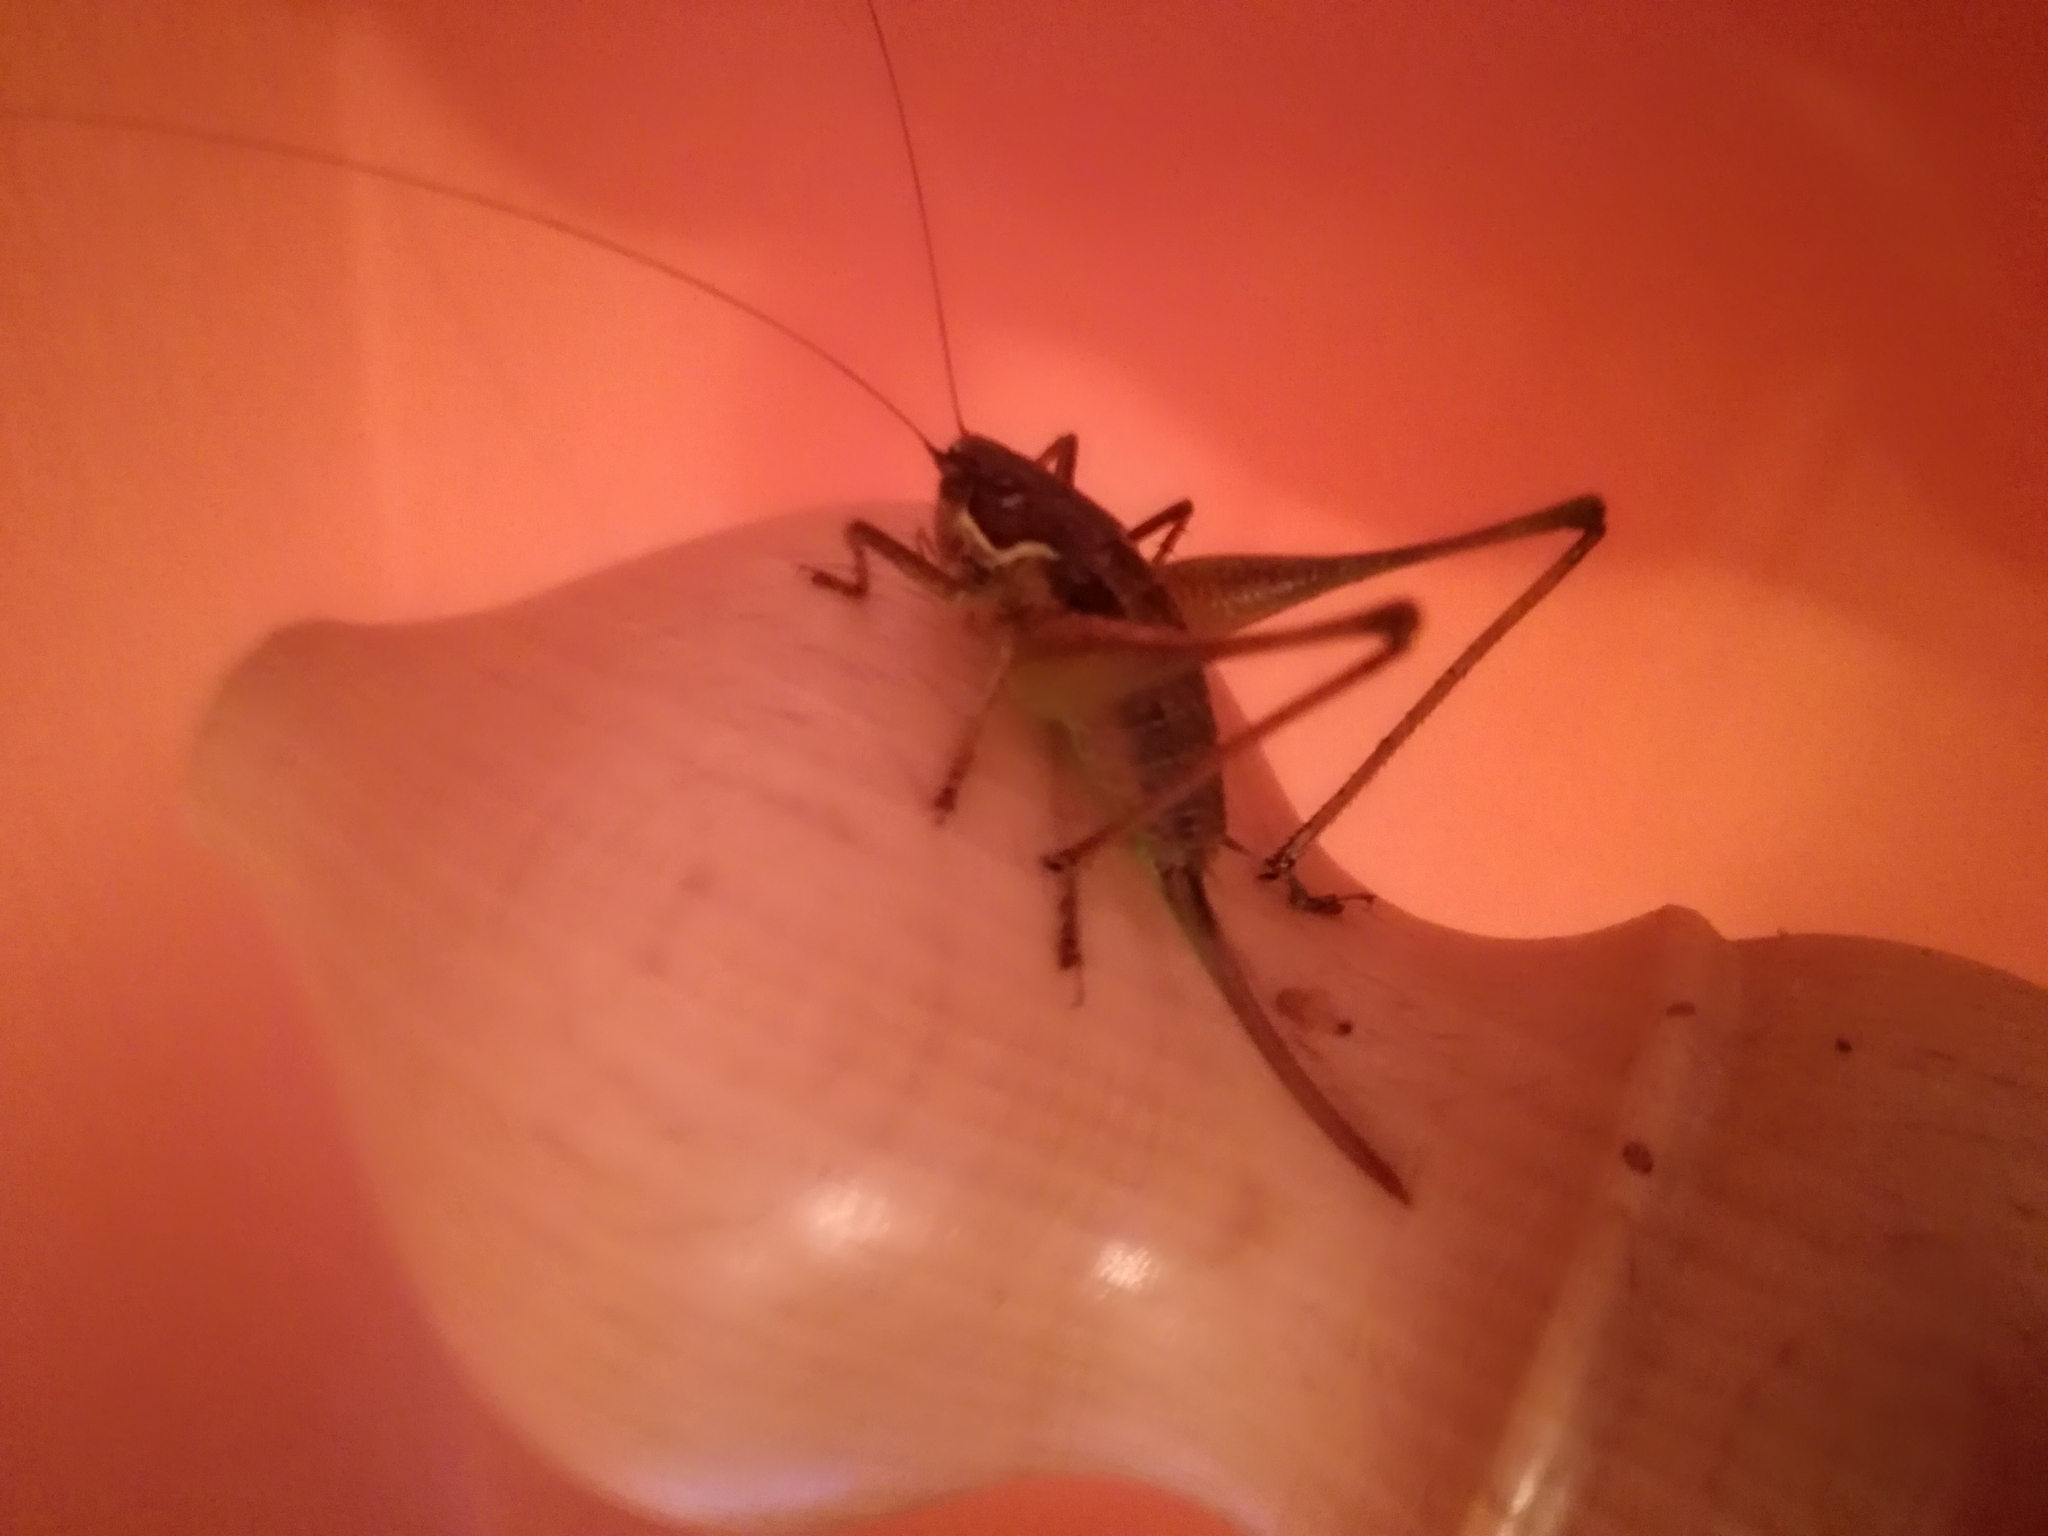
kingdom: Animalia
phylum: Arthropoda
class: Insecta
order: Orthoptera
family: Tettigoniidae
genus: Pachytrachis
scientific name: Pachytrachis gracilis
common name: Graceful bush-cricket
